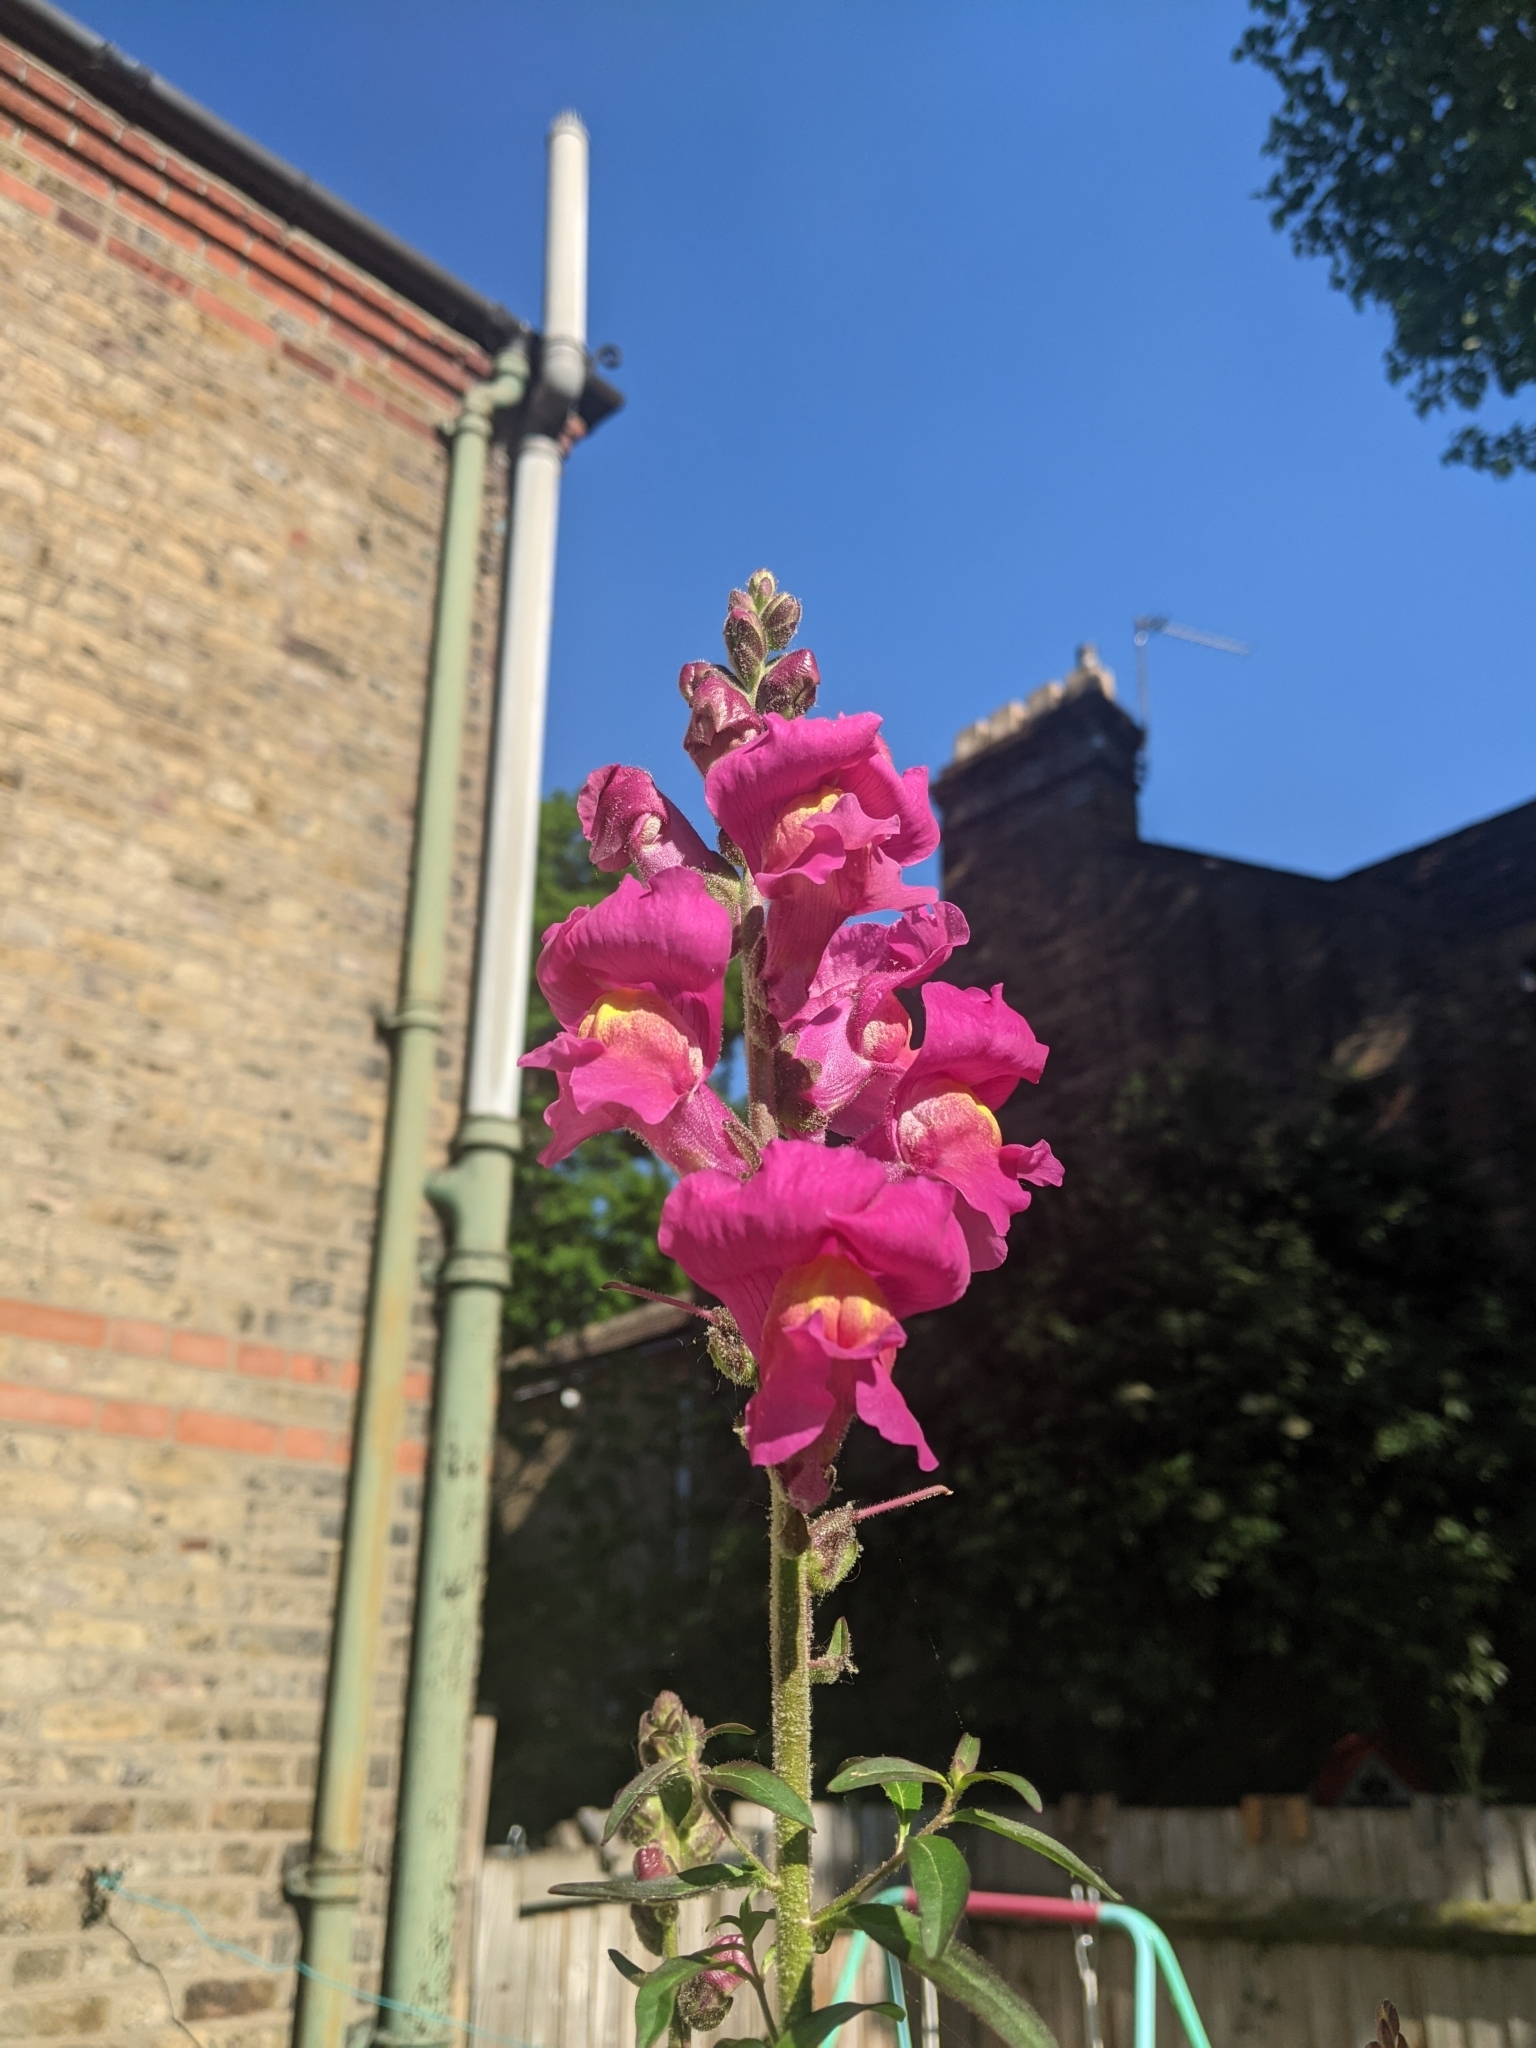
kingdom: Plantae
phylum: Tracheophyta
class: Magnoliopsida
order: Lamiales
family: Plantaginaceae
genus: Antirrhinum
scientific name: Antirrhinum majus
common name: Snapdragon
